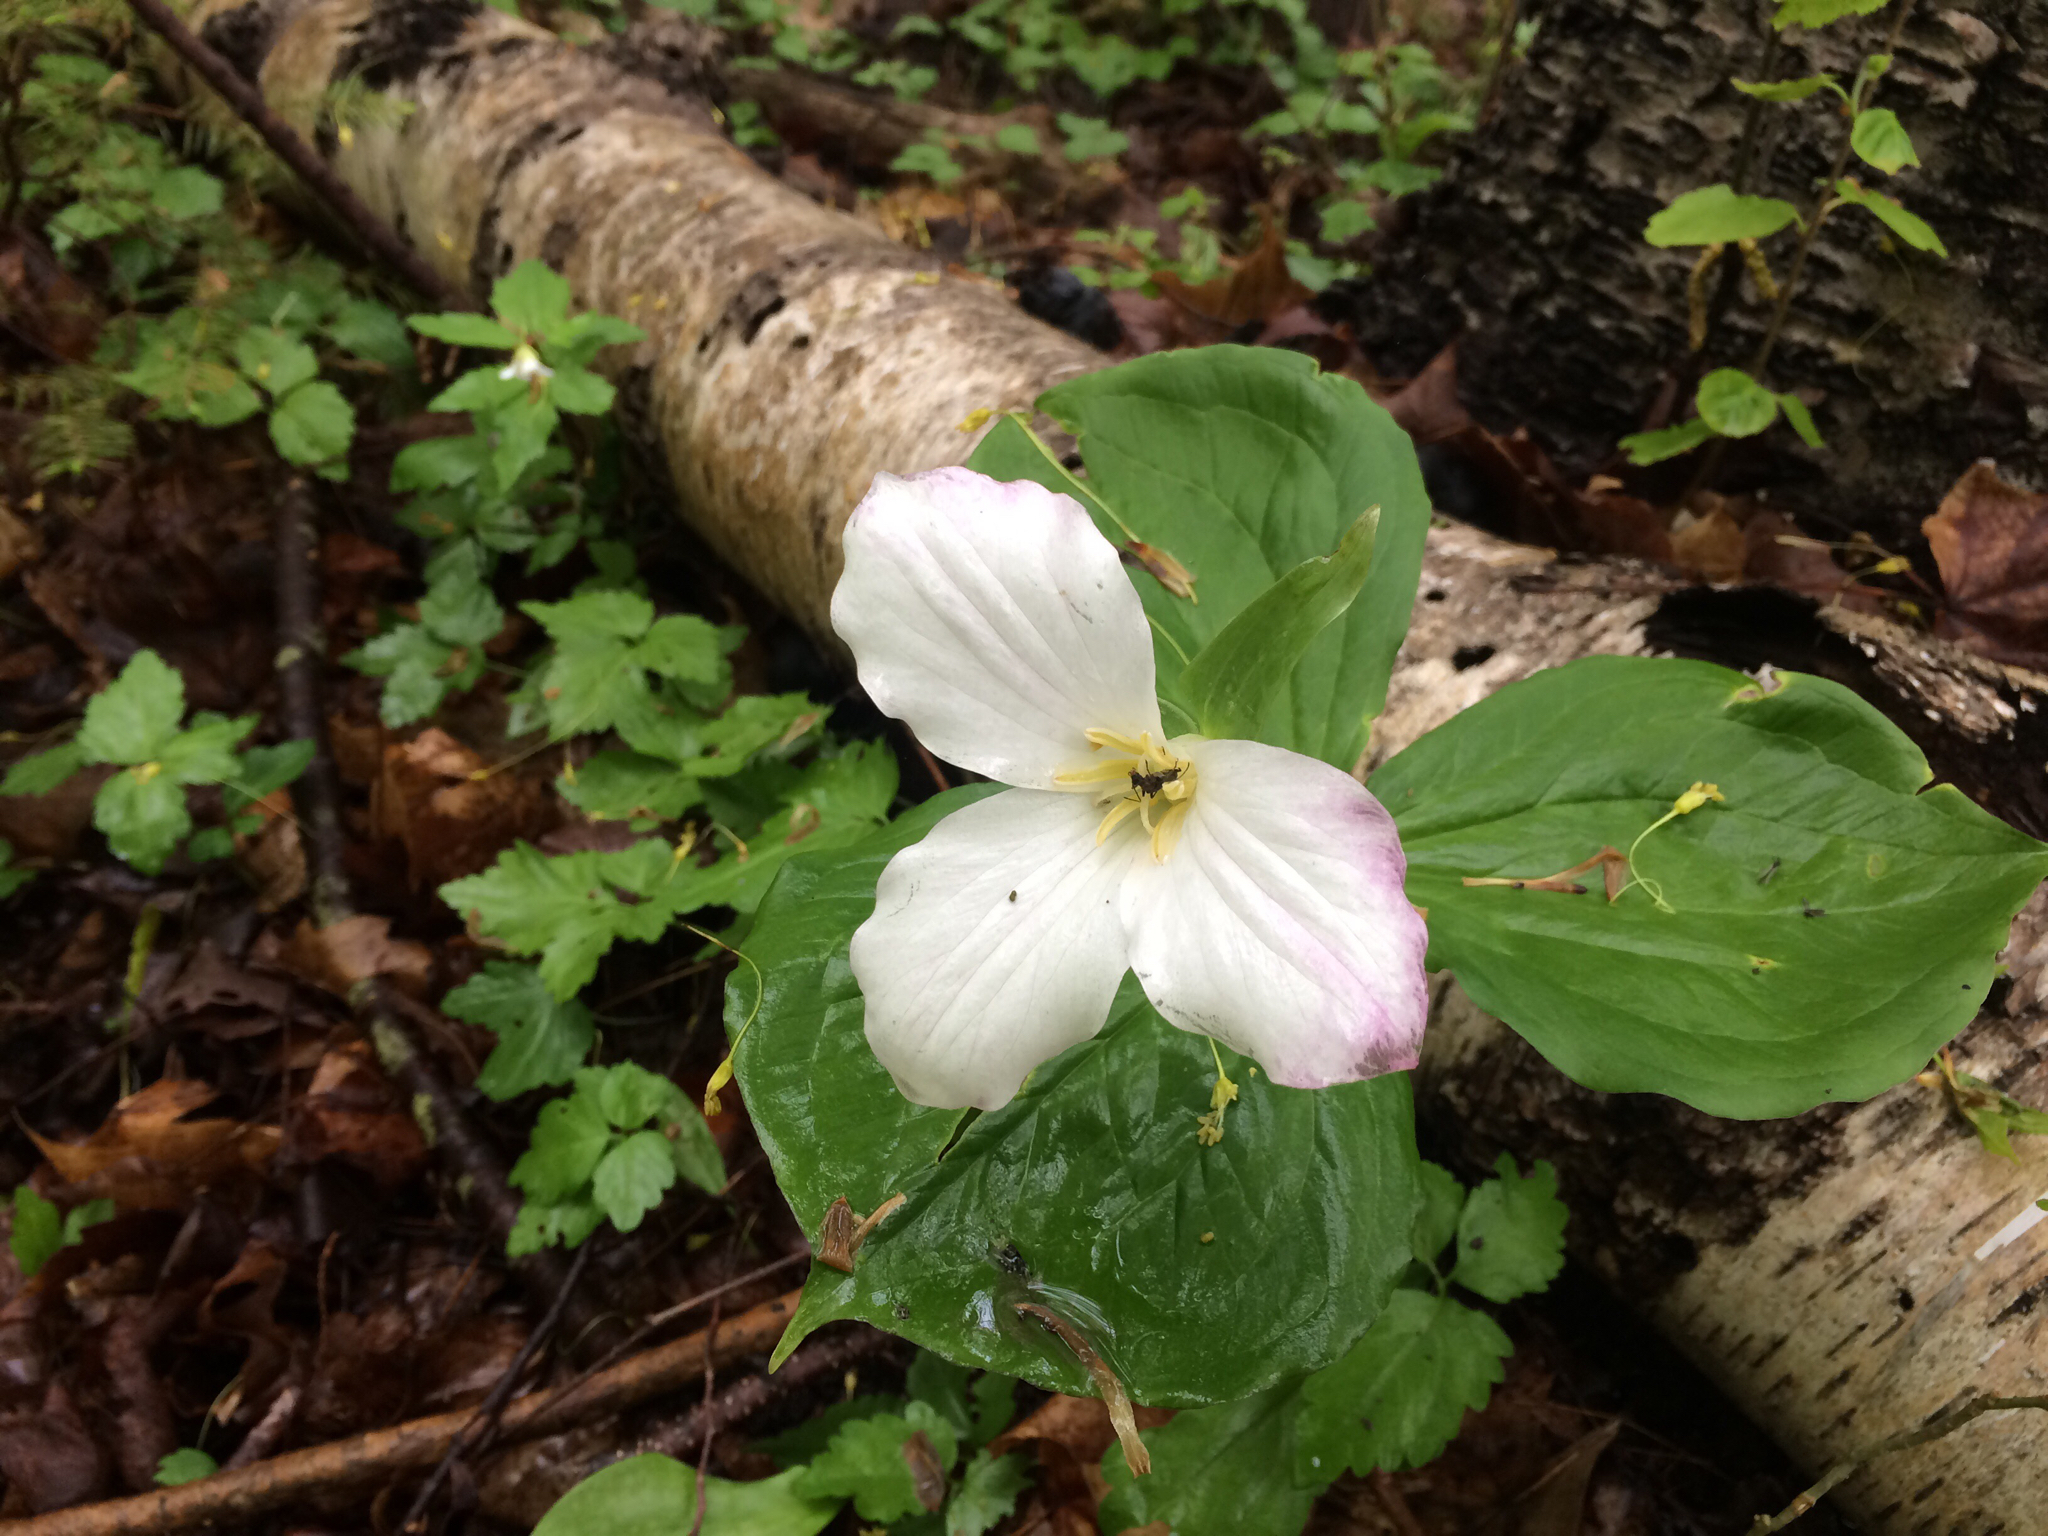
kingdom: Plantae
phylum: Tracheophyta
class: Liliopsida
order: Liliales
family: Melanthiaceae
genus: Trillium
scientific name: Trillium grandiflorum
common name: Great white trillium
